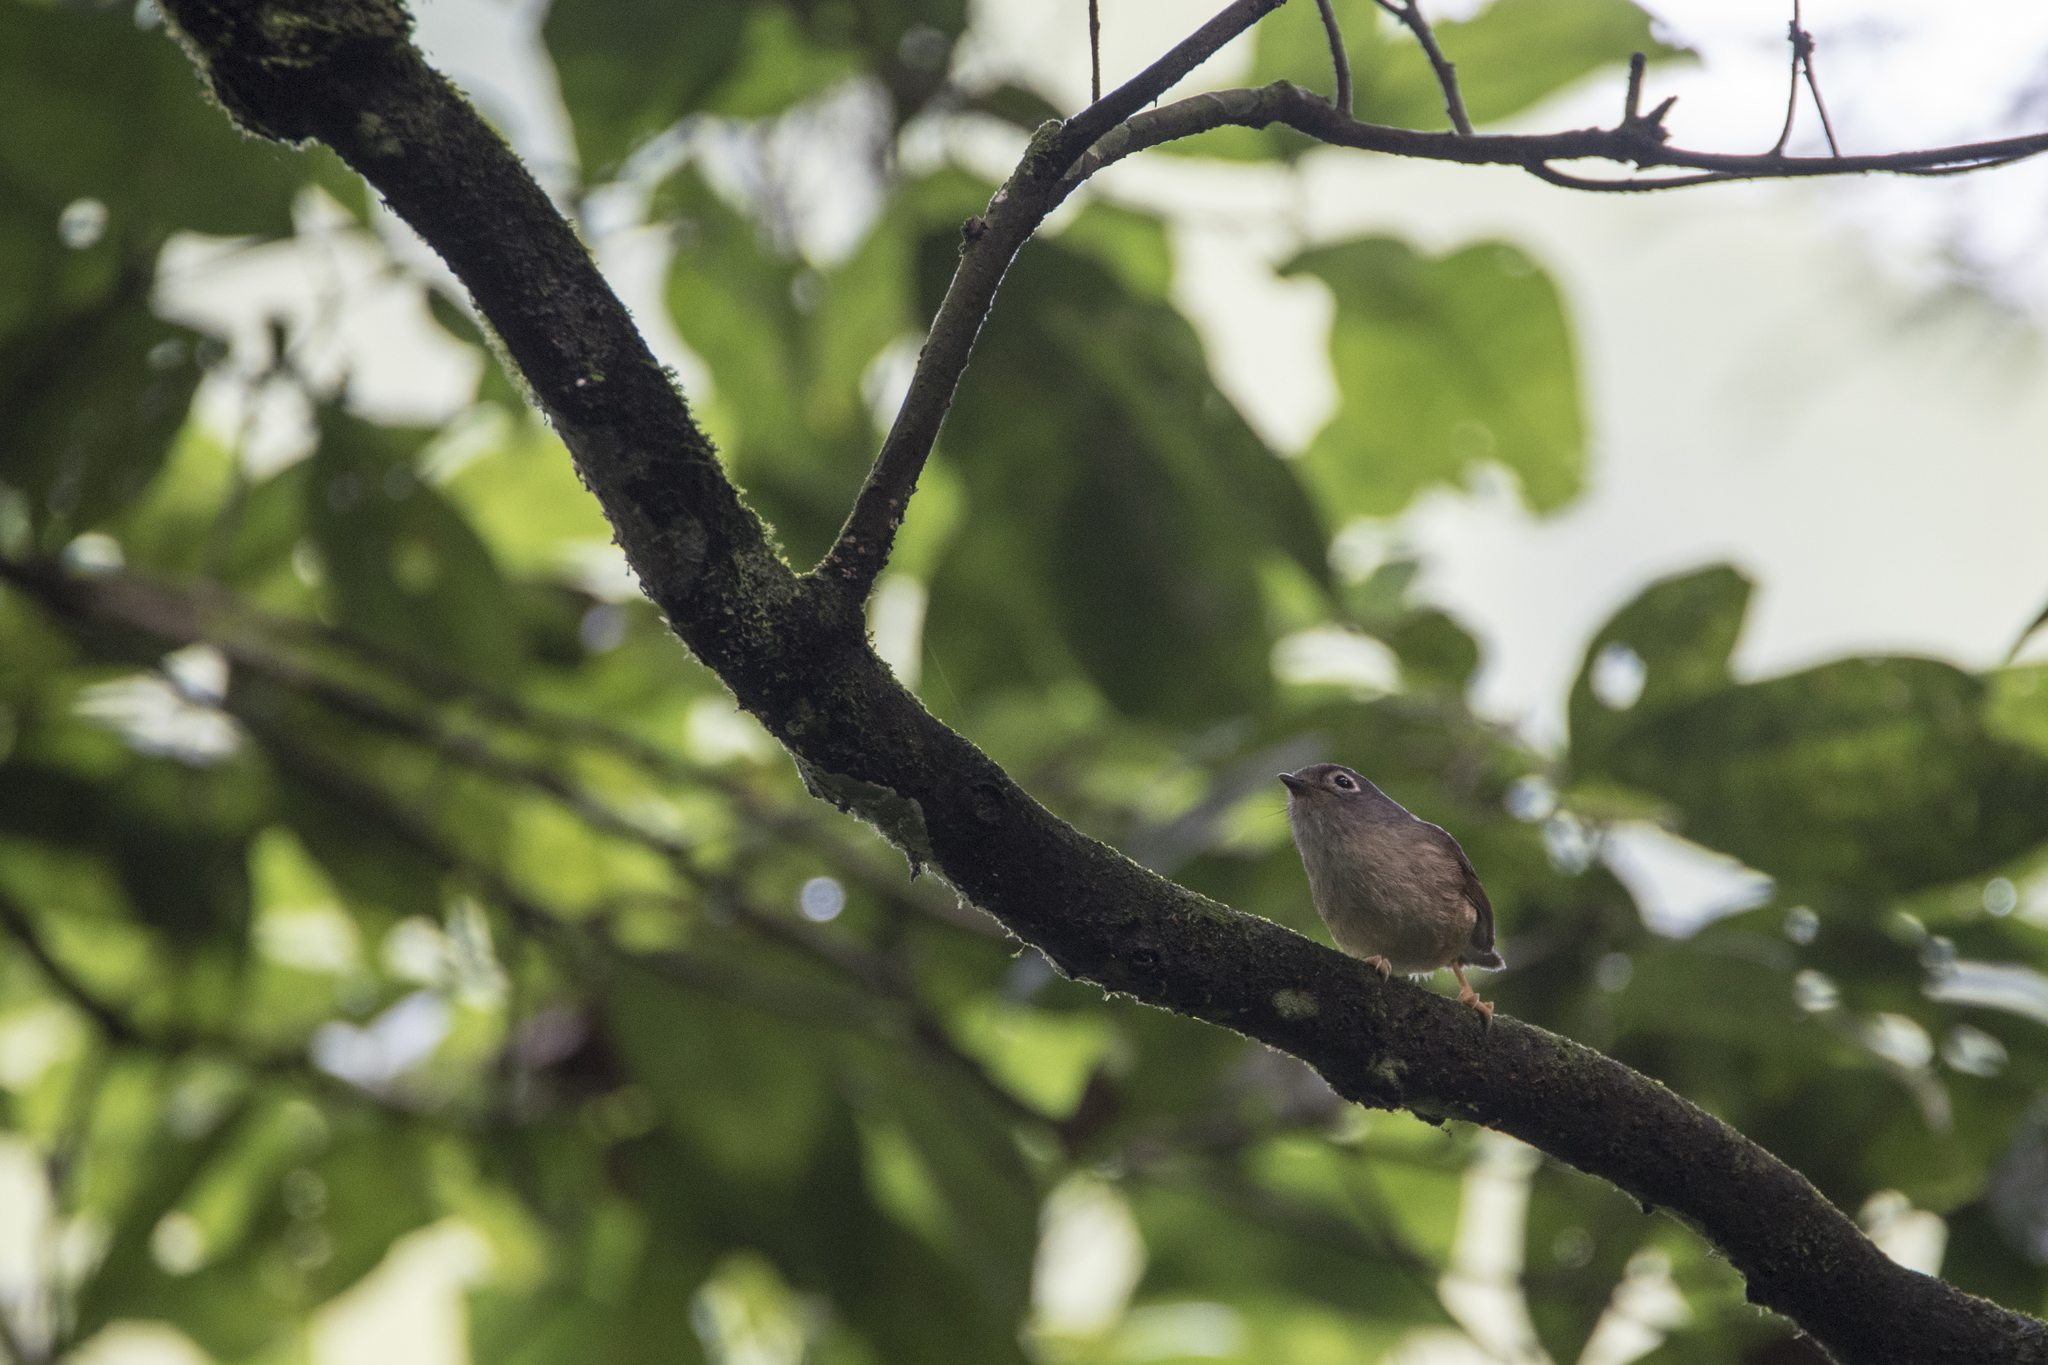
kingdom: Animalia
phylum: Chordata
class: Aves
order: Passeriformes
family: Pellorneidae
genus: Alcippe
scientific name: Alcippe morrisonia
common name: Grey-cheeked fulvetta
